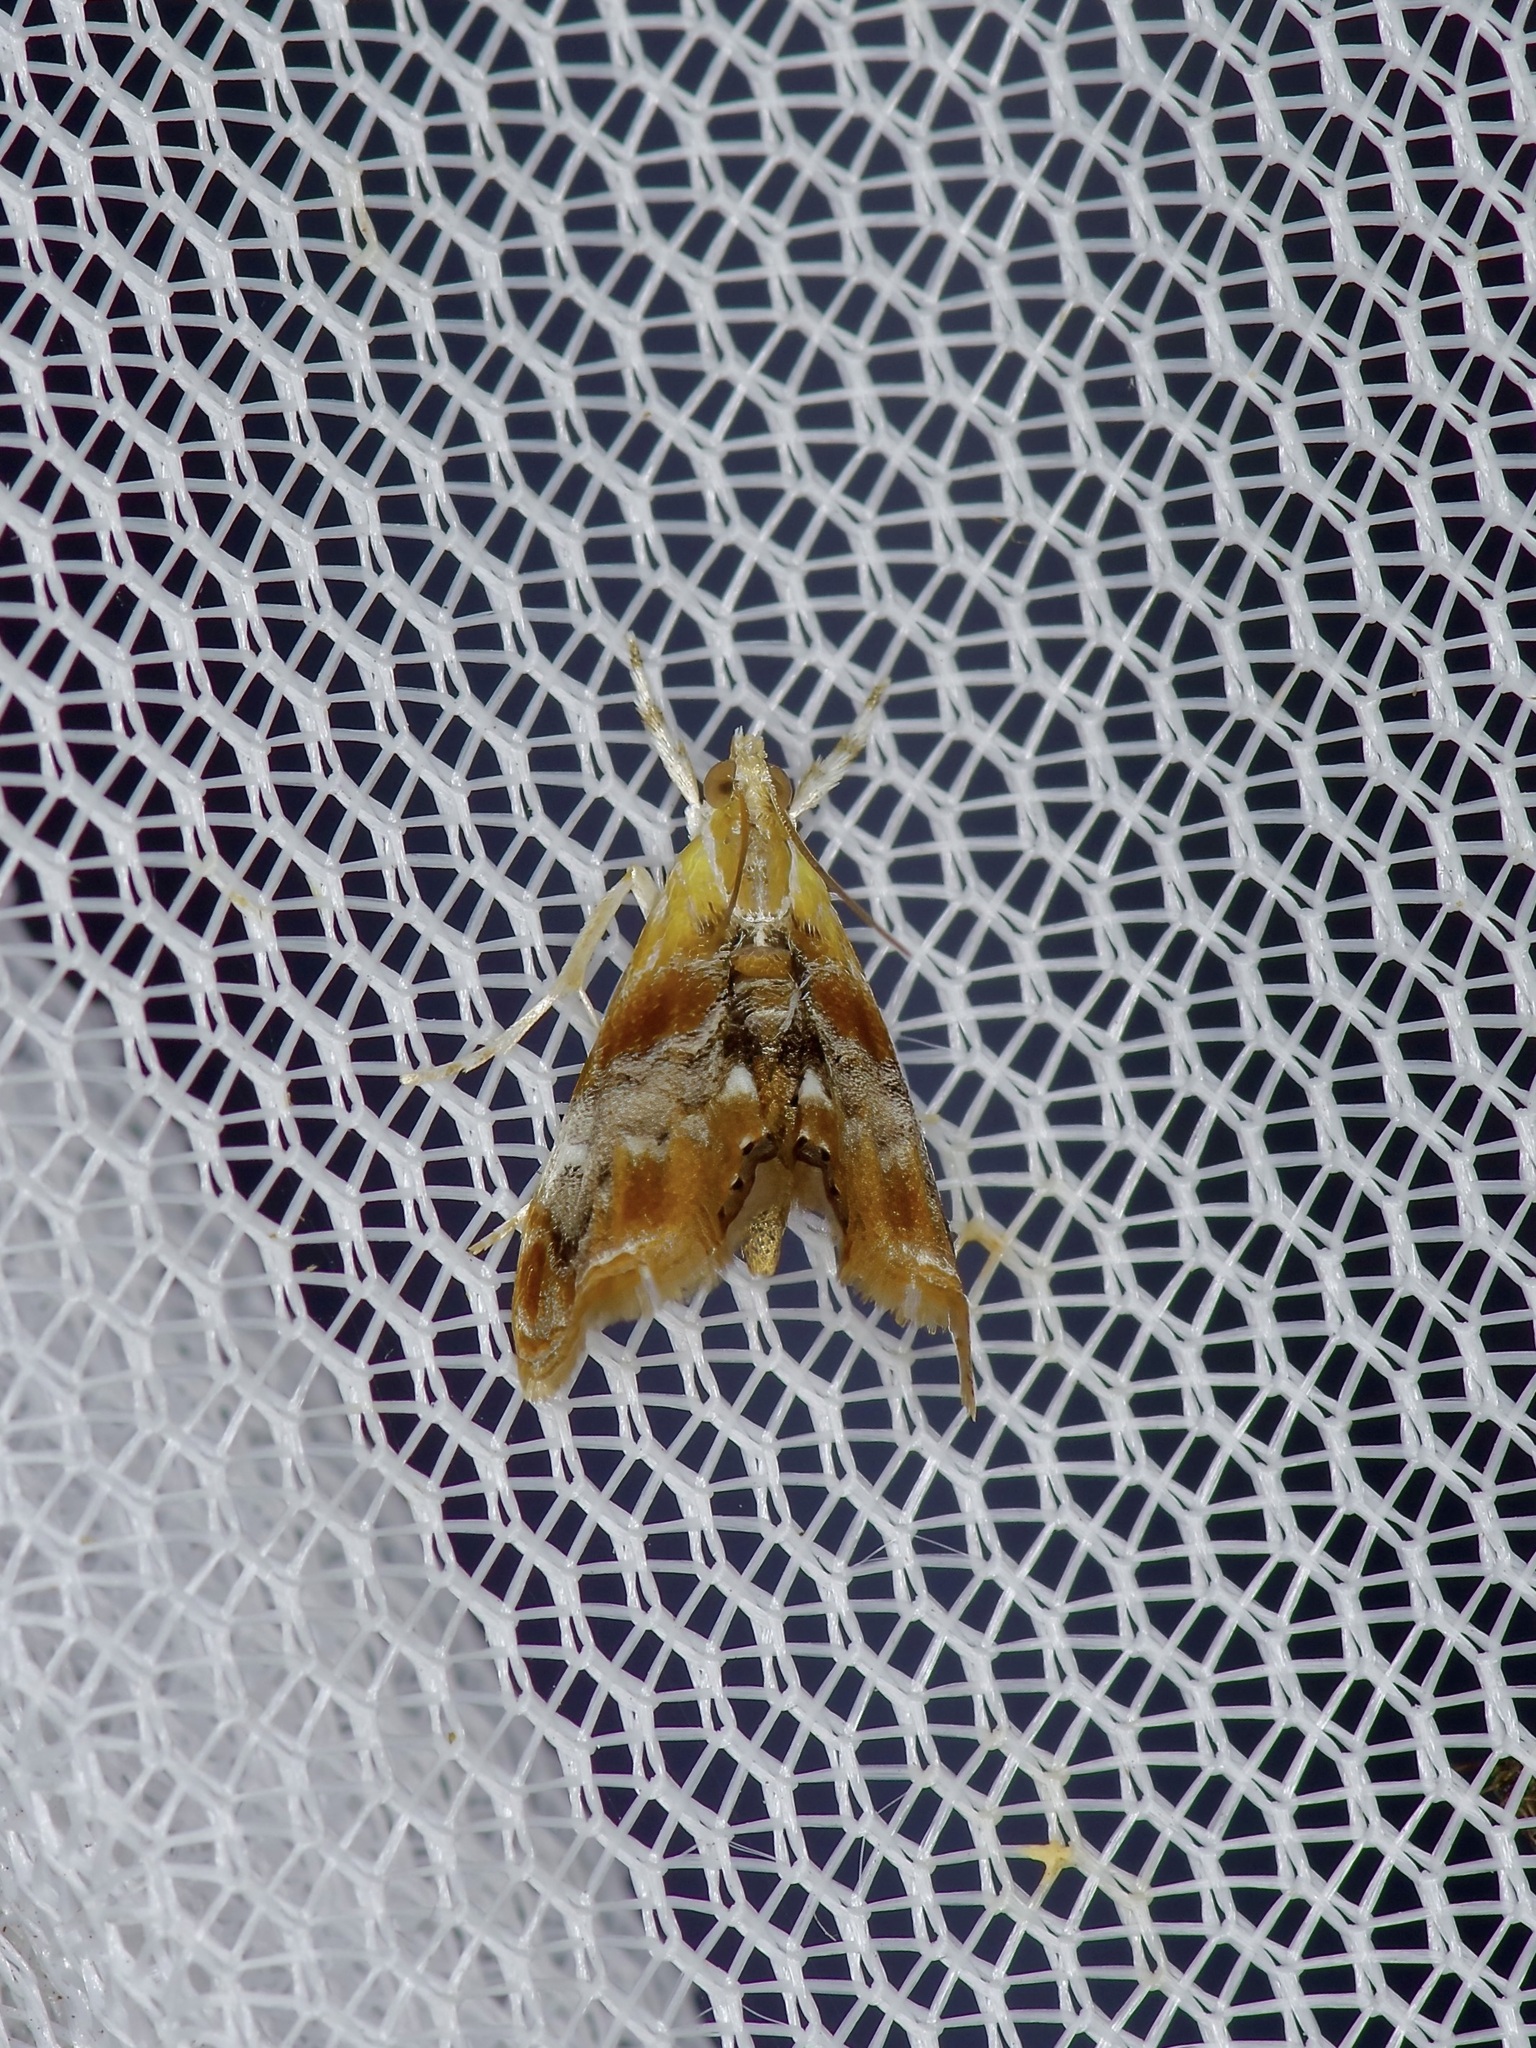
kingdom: Animalia
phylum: Arthropoda
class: Insecta
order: Lepidoptera
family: Crambidae
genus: Dicymolomia
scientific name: Dicymolomia julianalis
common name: Julia's dicymolomia moth
